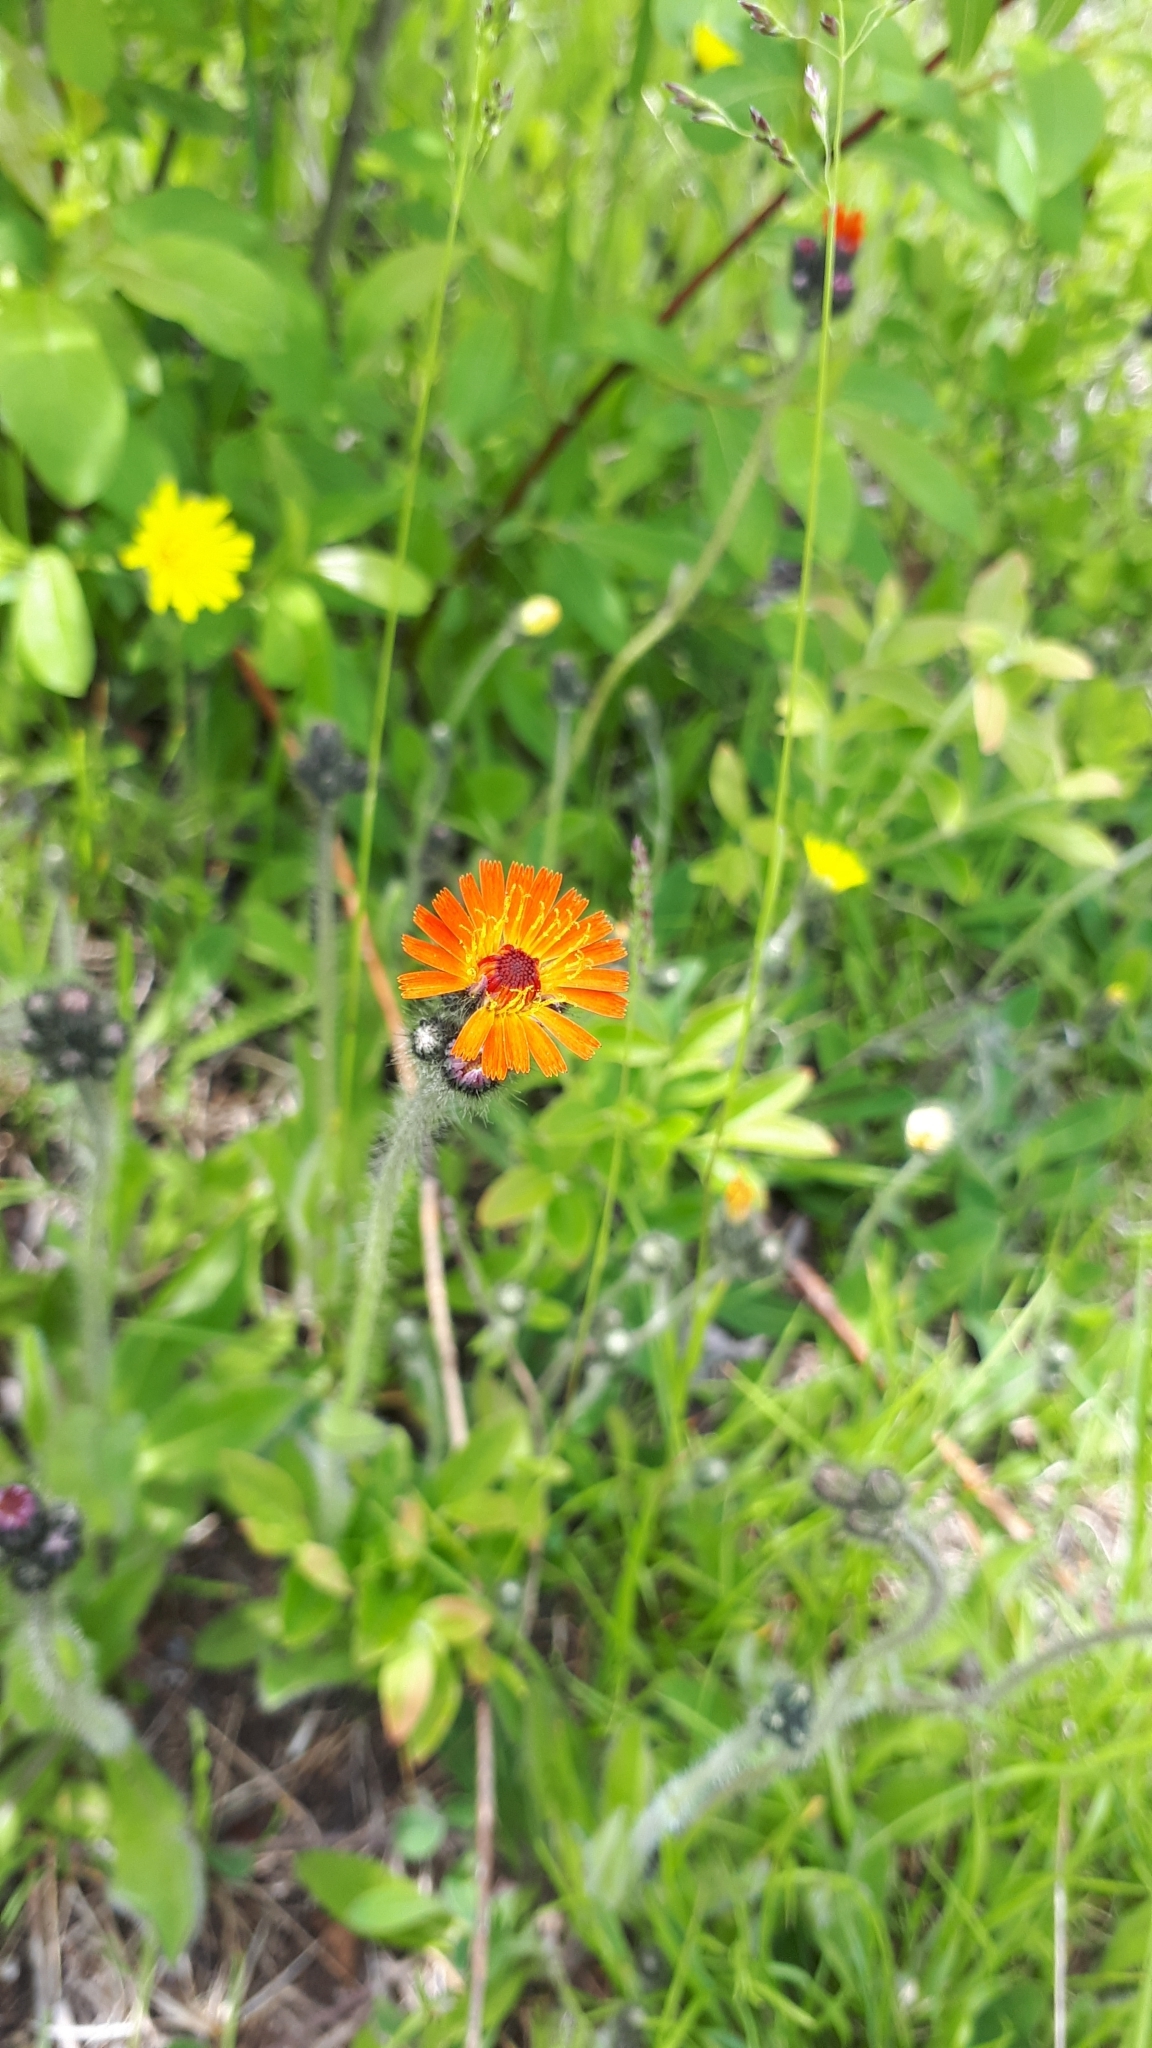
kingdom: Plantae
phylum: Tracheophyta
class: Magnoliopsida
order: Asterales
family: Asteraceae
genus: Pilosella
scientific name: Pilosella aurantiaca
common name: Fox-and-cubs
